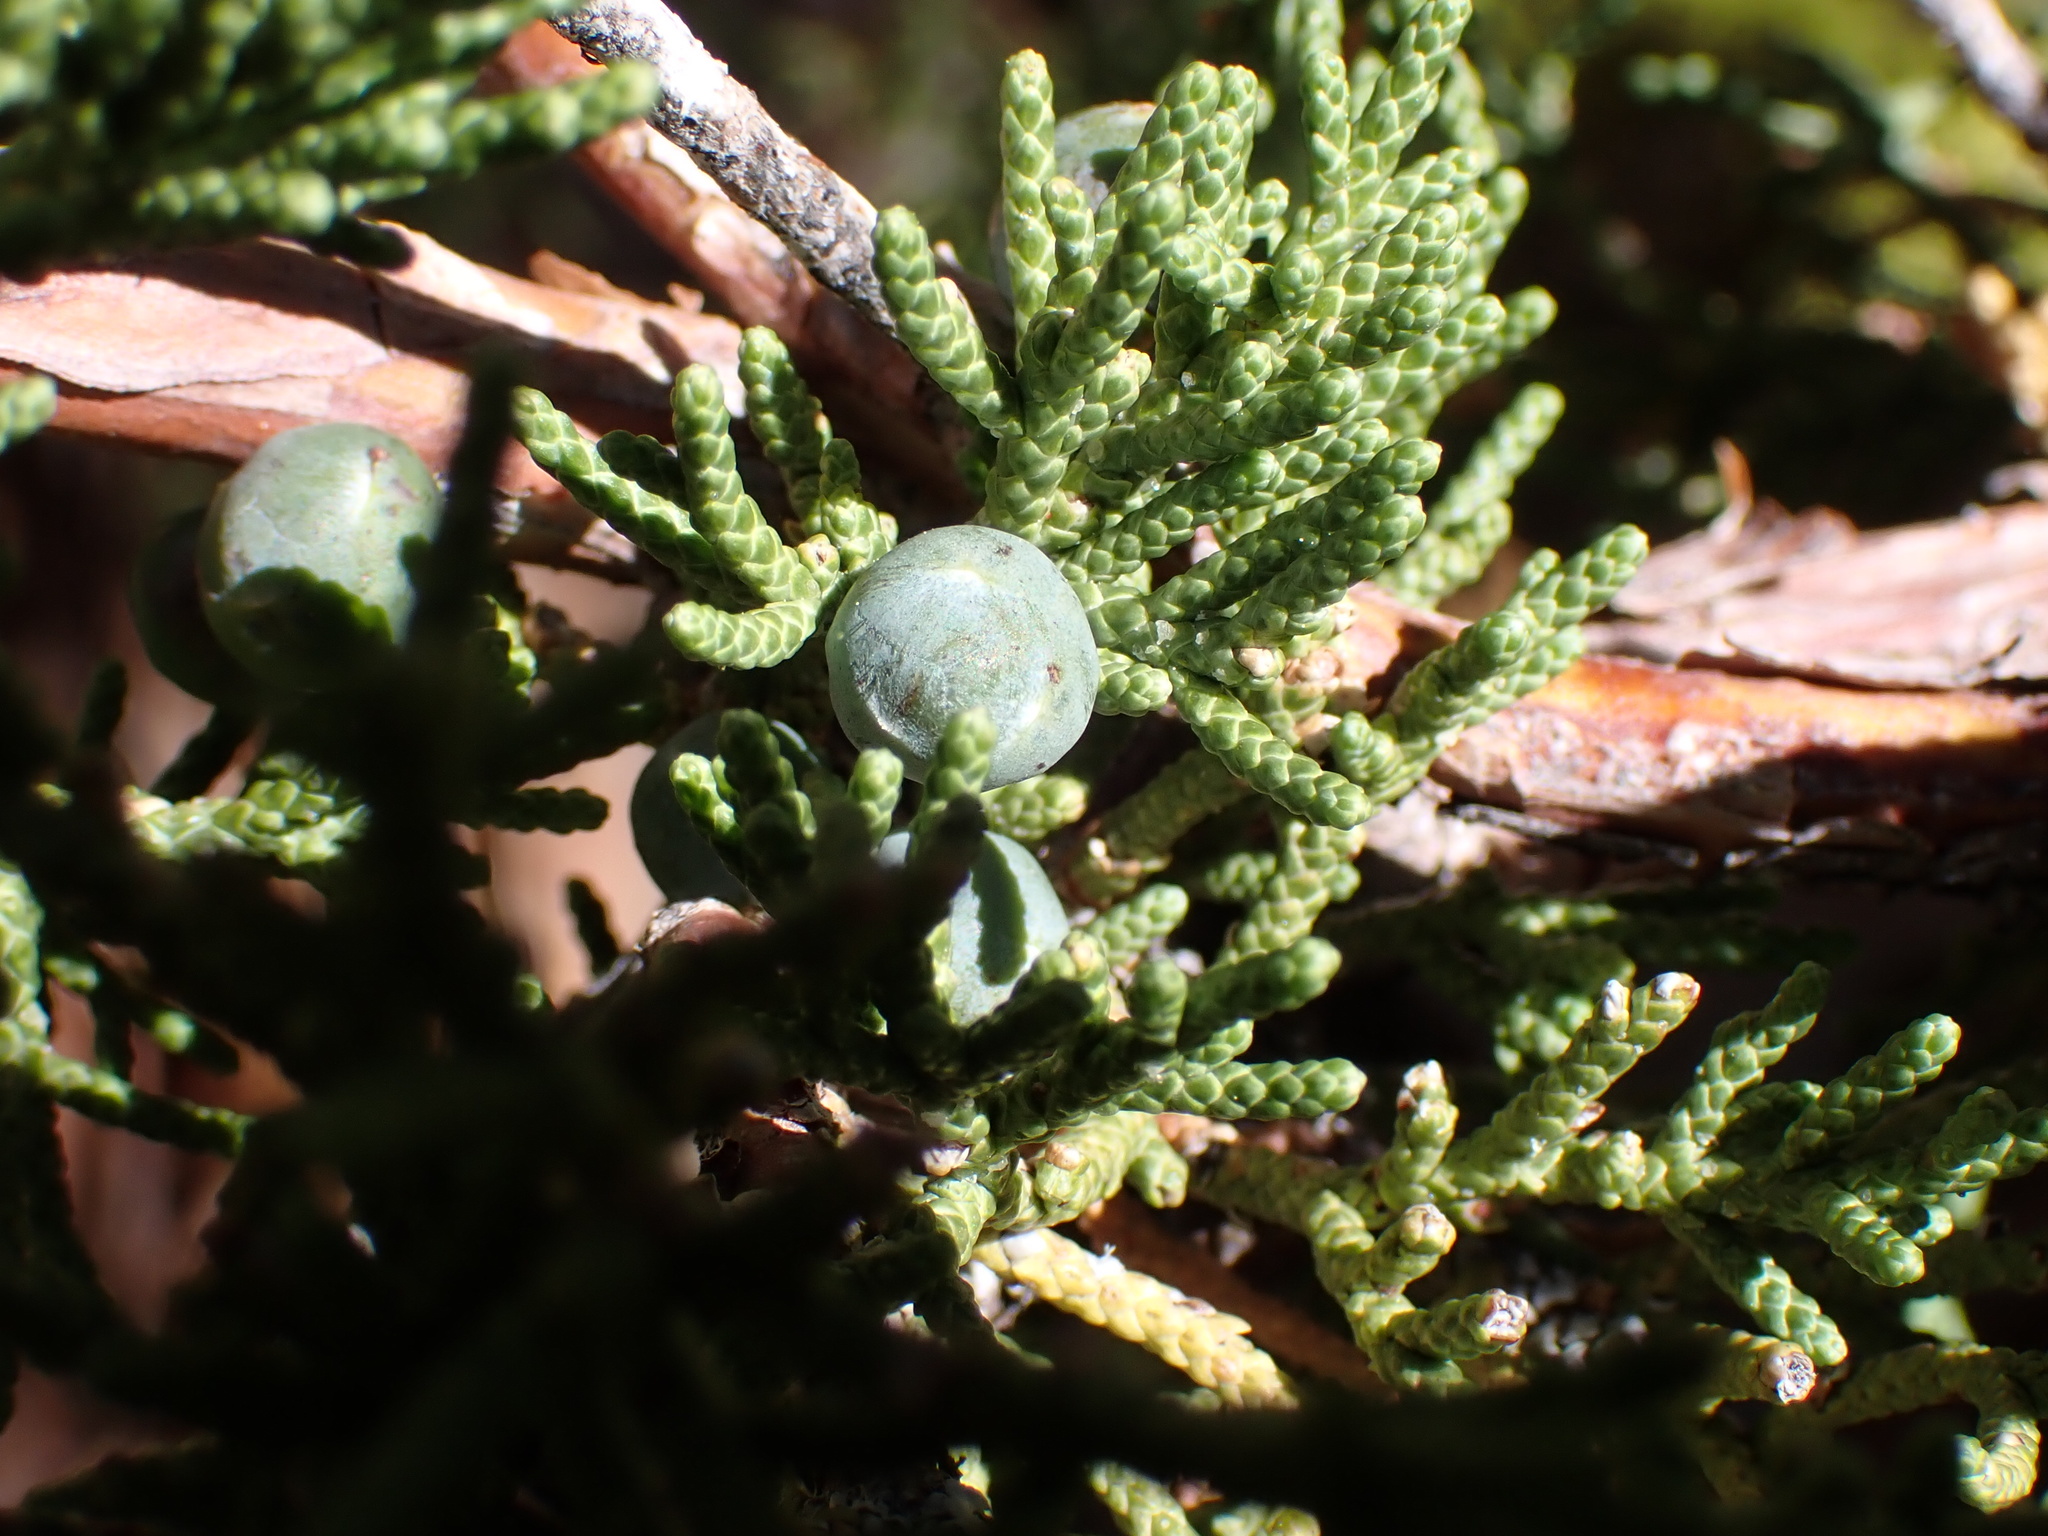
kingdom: Plantae
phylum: Tracheophyta
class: Pinopsida
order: Pinales
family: Cupressaceae
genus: Juniperus
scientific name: Juniperus occidentalis
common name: Western juniper
